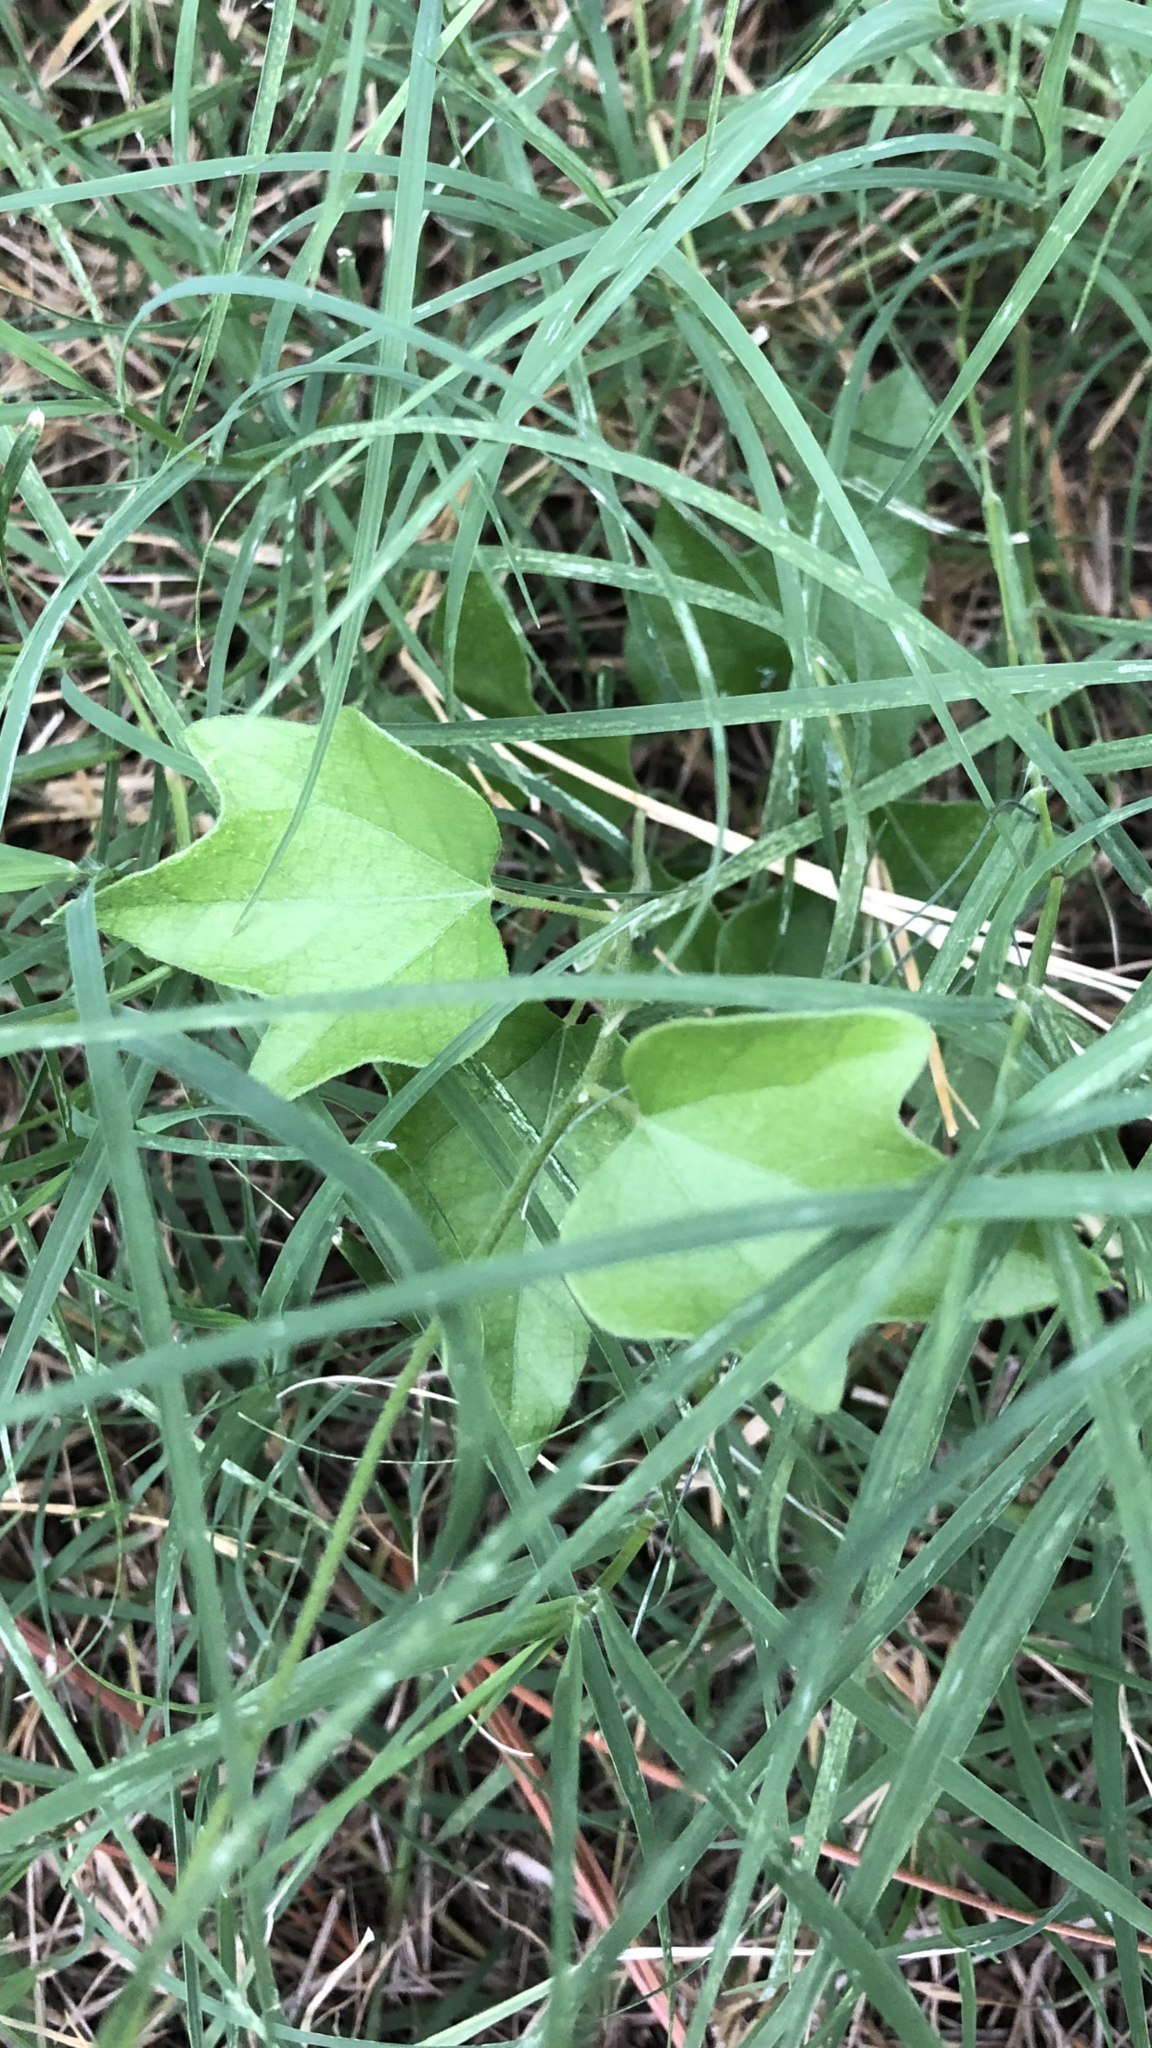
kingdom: Plantae
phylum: Tracheophyta
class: Magnoliopsida
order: Ranunculales
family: Menispermaceae
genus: Cocculus
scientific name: Cocculus carolinus
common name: Carolina moonseed
